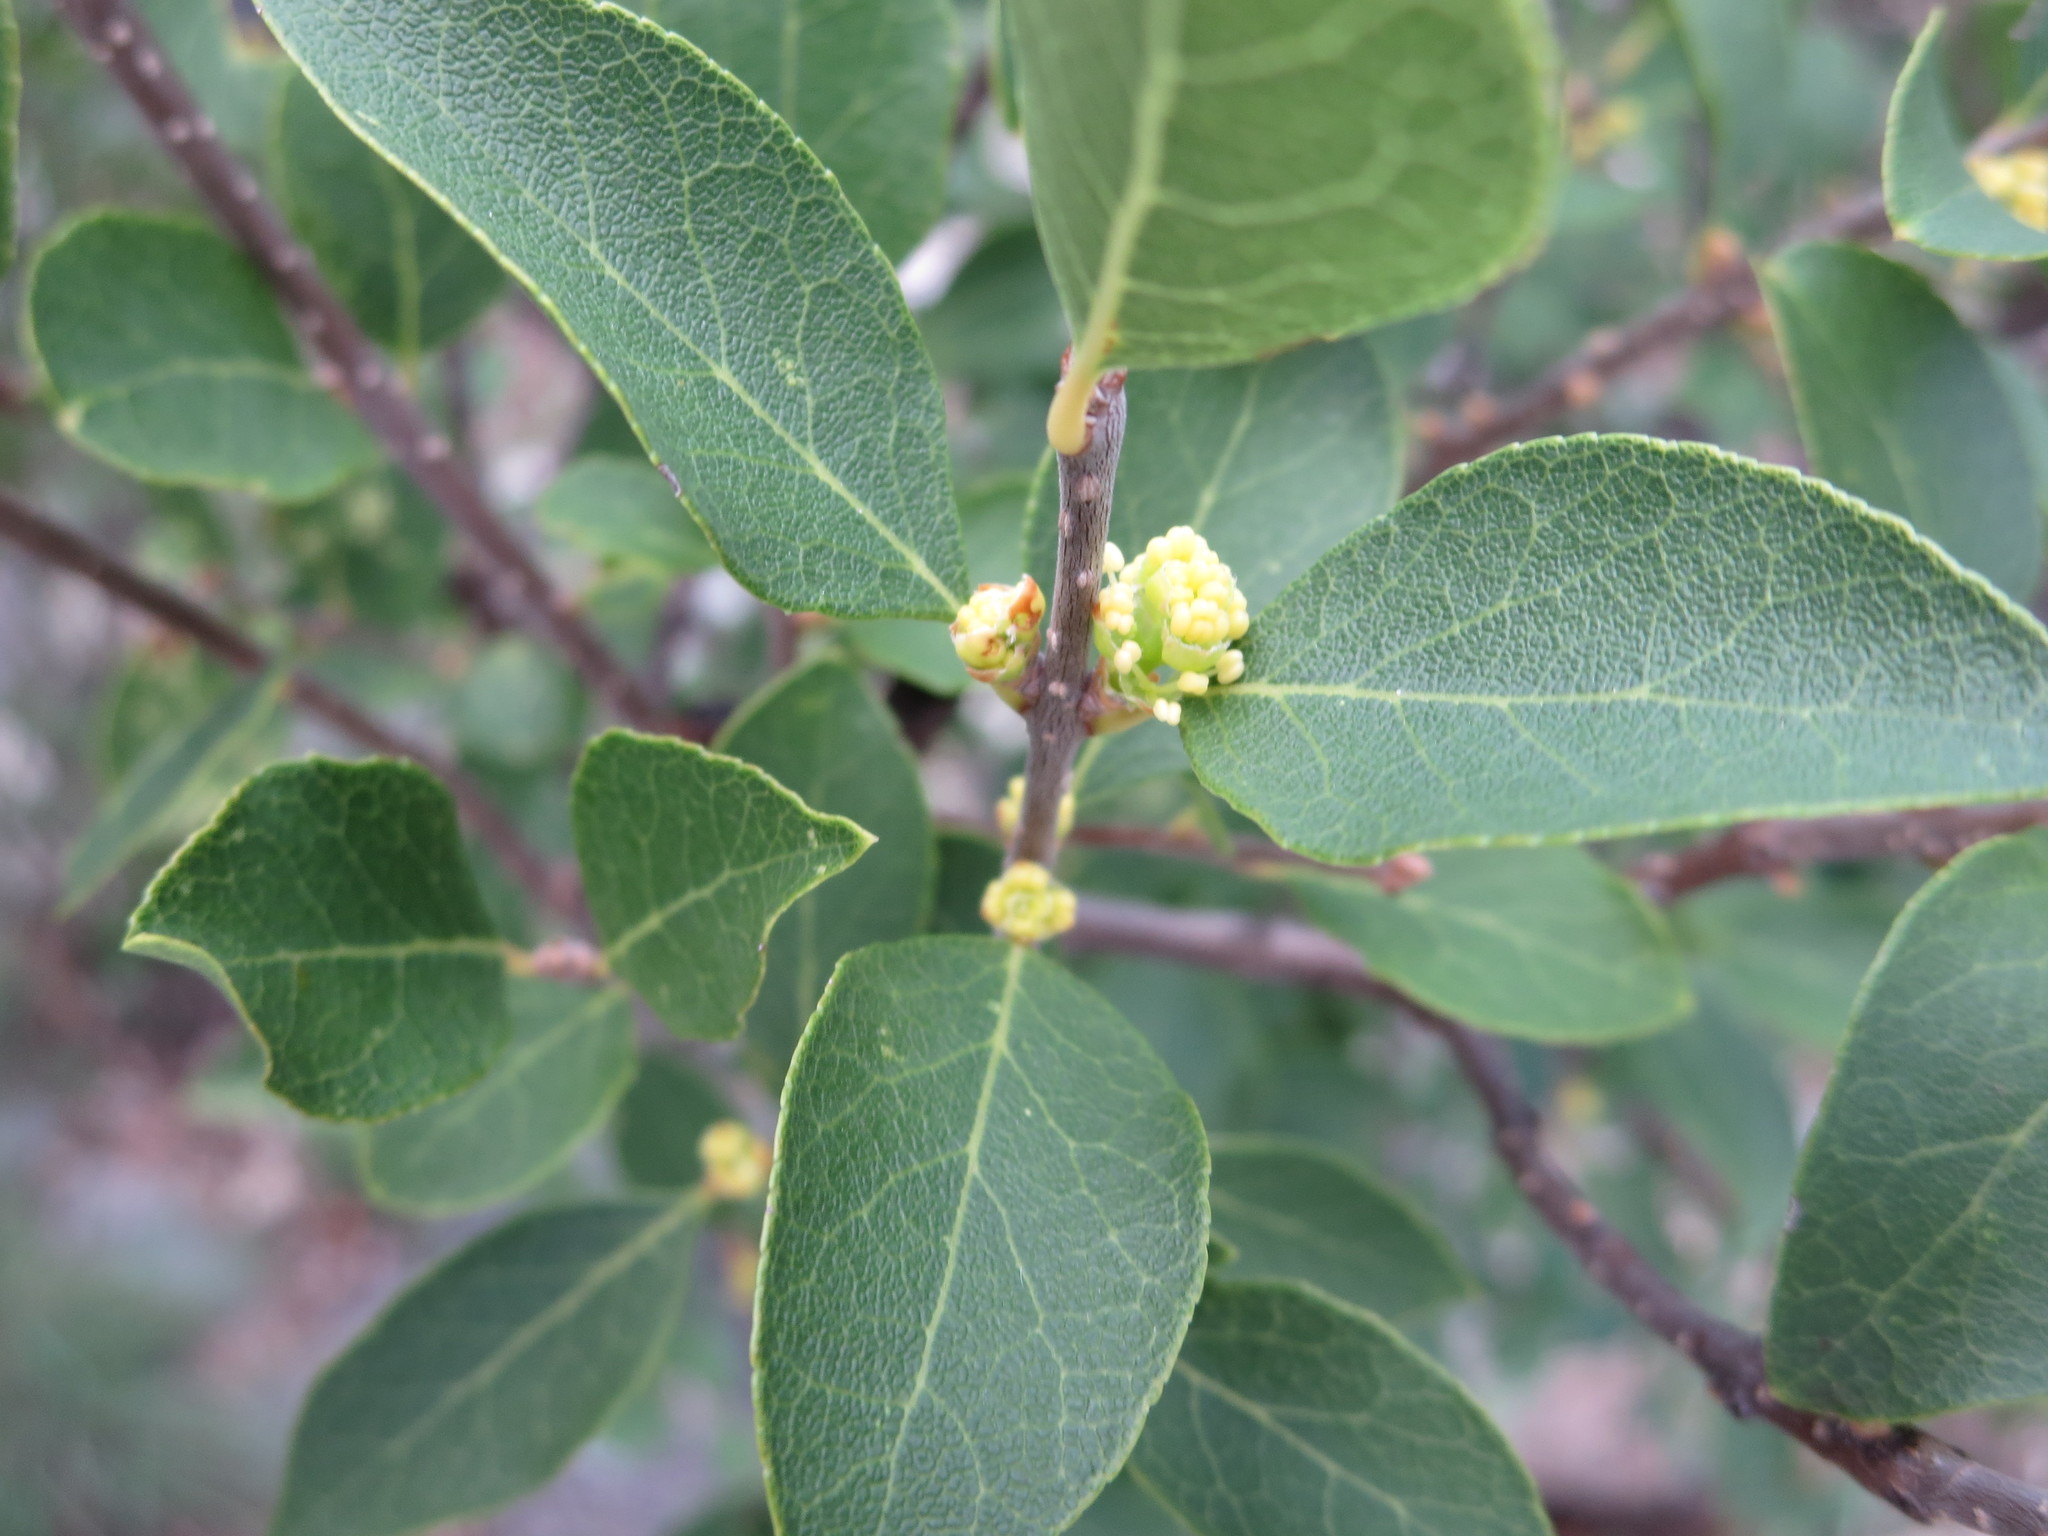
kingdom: Plantae
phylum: Tracheophyta
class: Magnoliopsida
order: Lamiales
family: Oleaceae
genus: Forestiera
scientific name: Forestiera reticulata
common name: Netleaf swamp-privet
